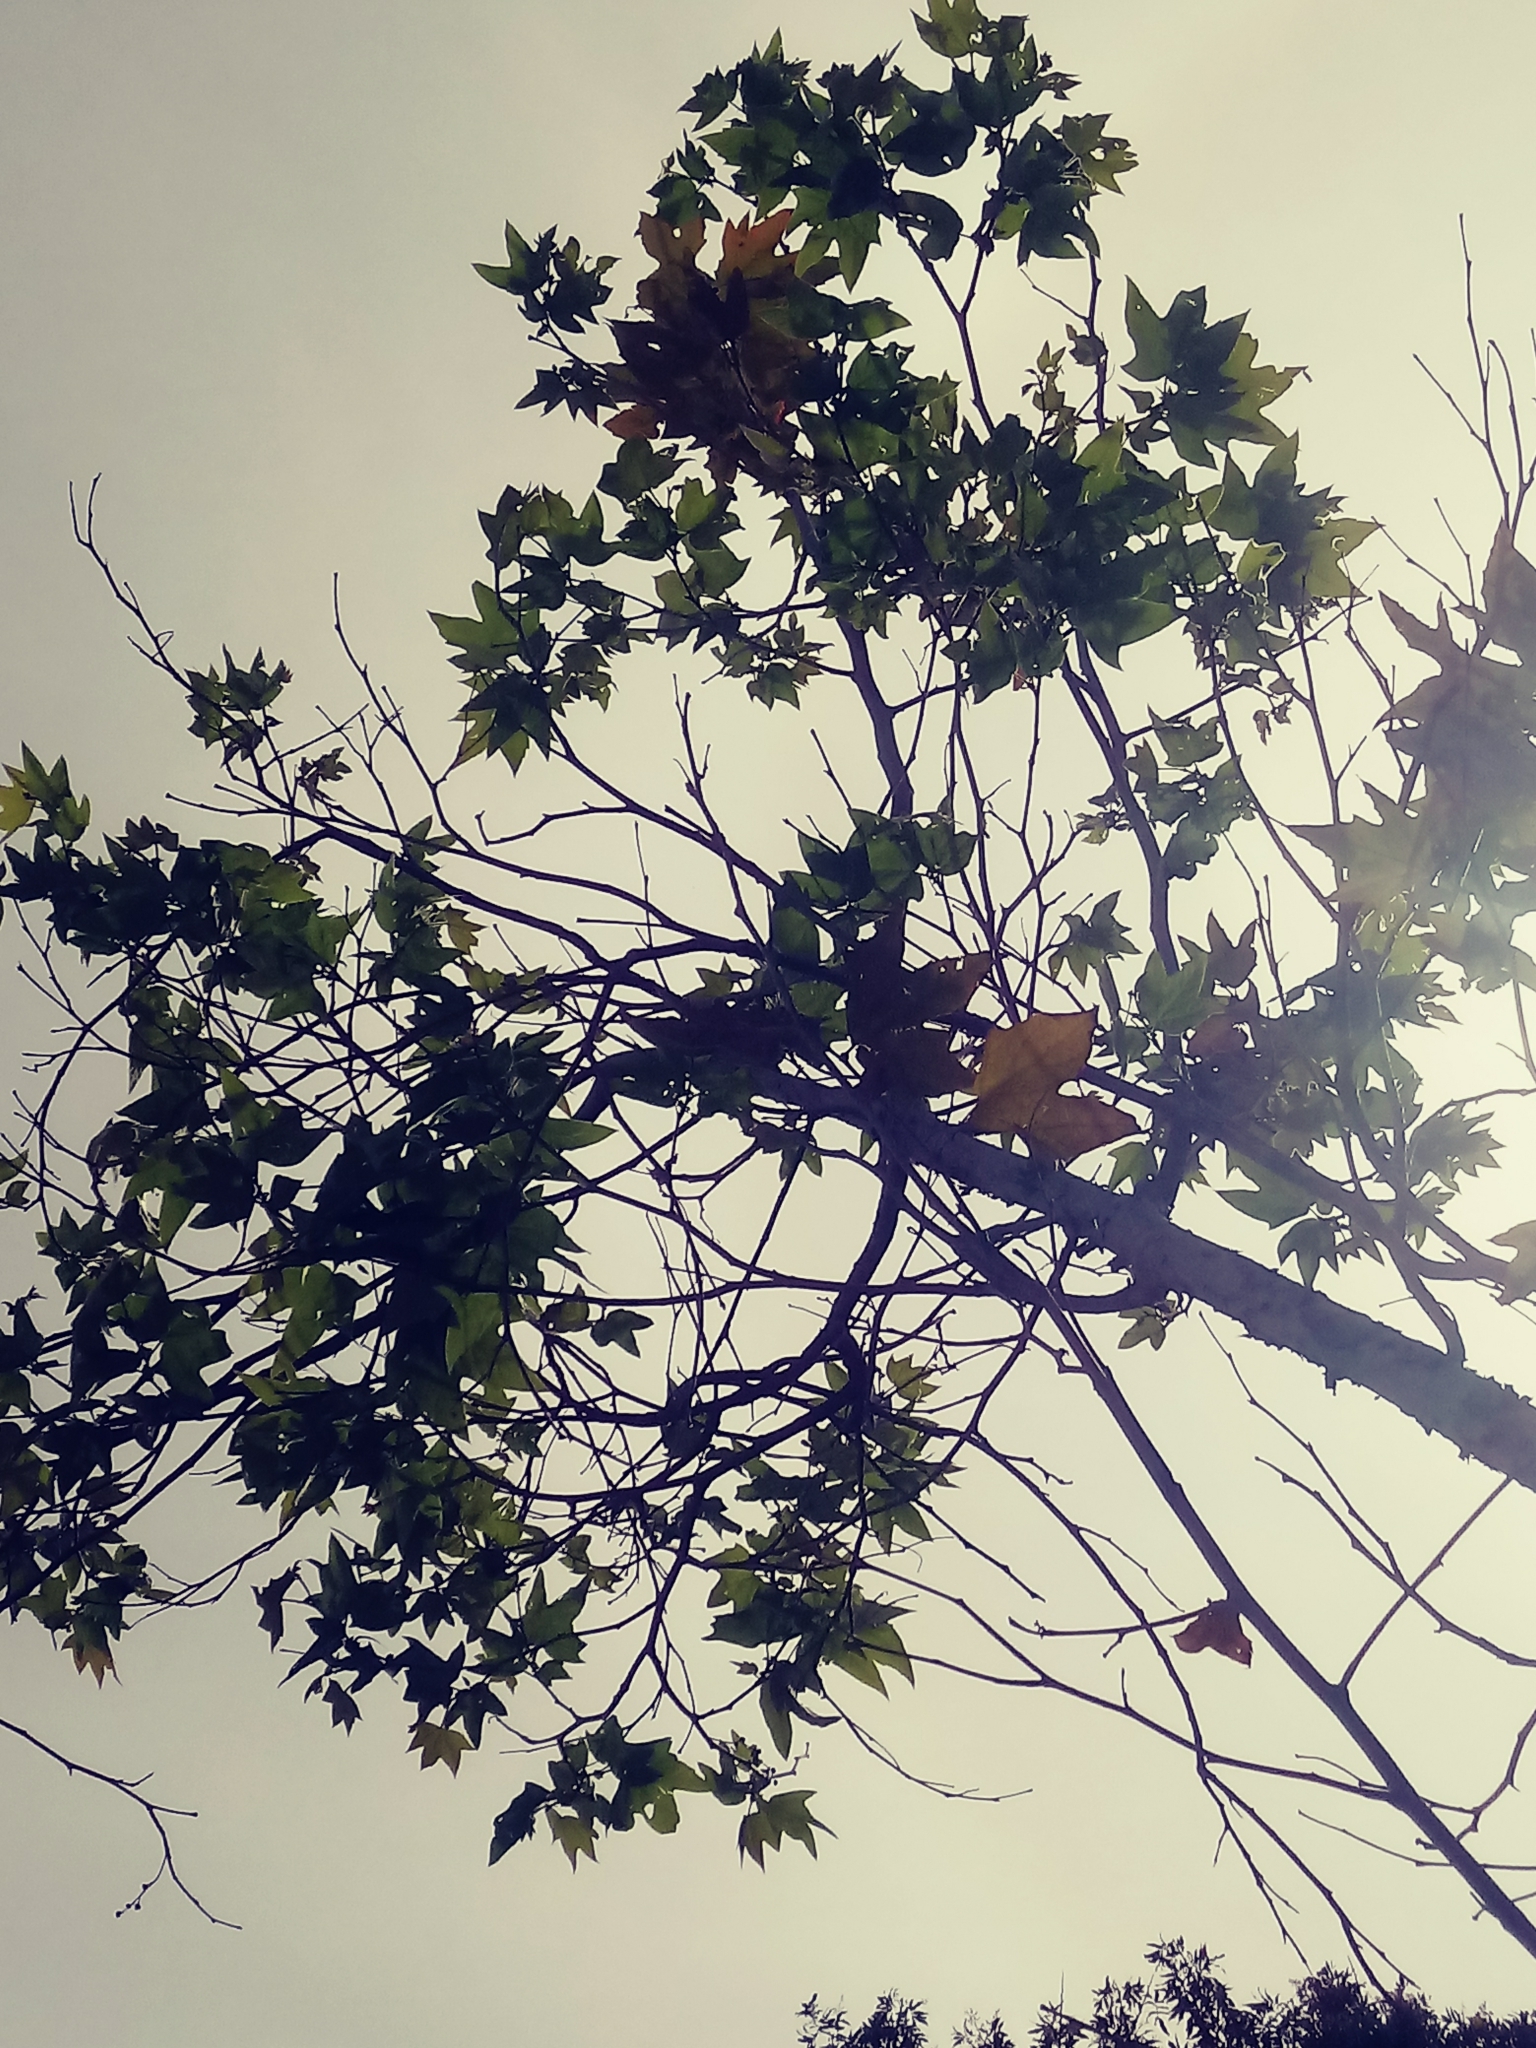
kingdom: Plantae
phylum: Tracheophyta
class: Magnoliopsida
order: Proteales
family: Platanaceae
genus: Platanus
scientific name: Platanus racemosa
